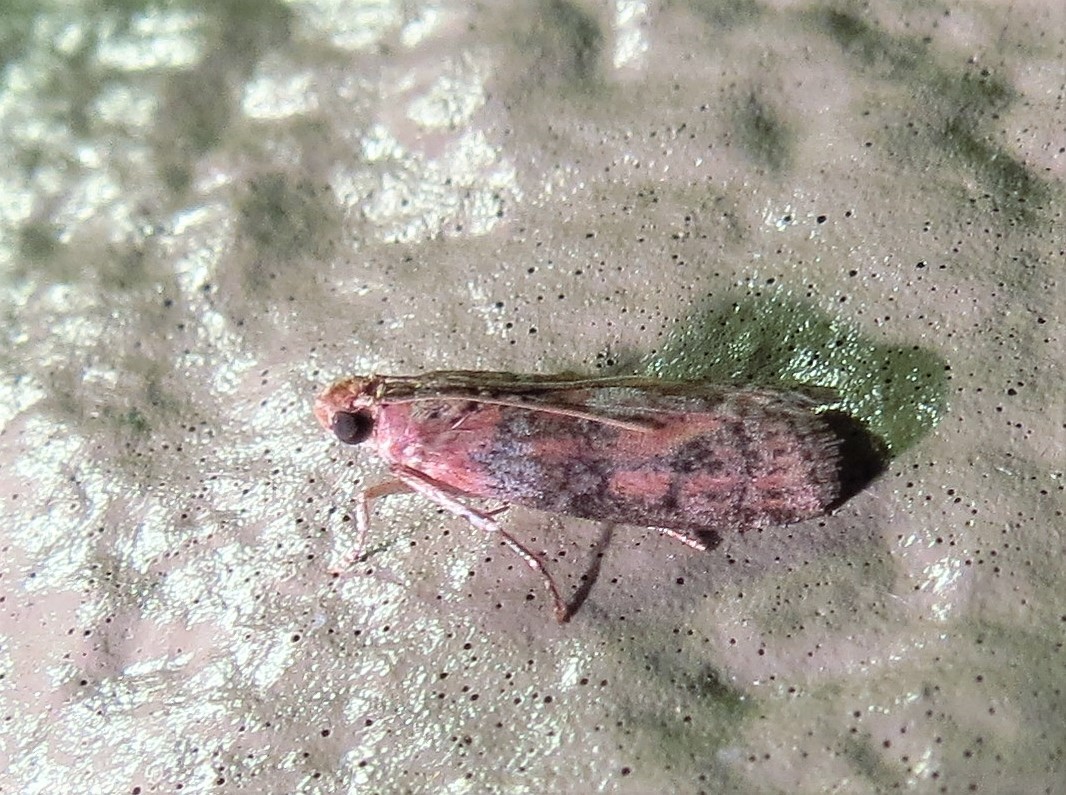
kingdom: Animalia
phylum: Arthropoda
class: Insecta
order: Lepidoptera
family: Pyralidae
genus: Sciota
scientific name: Sciota
